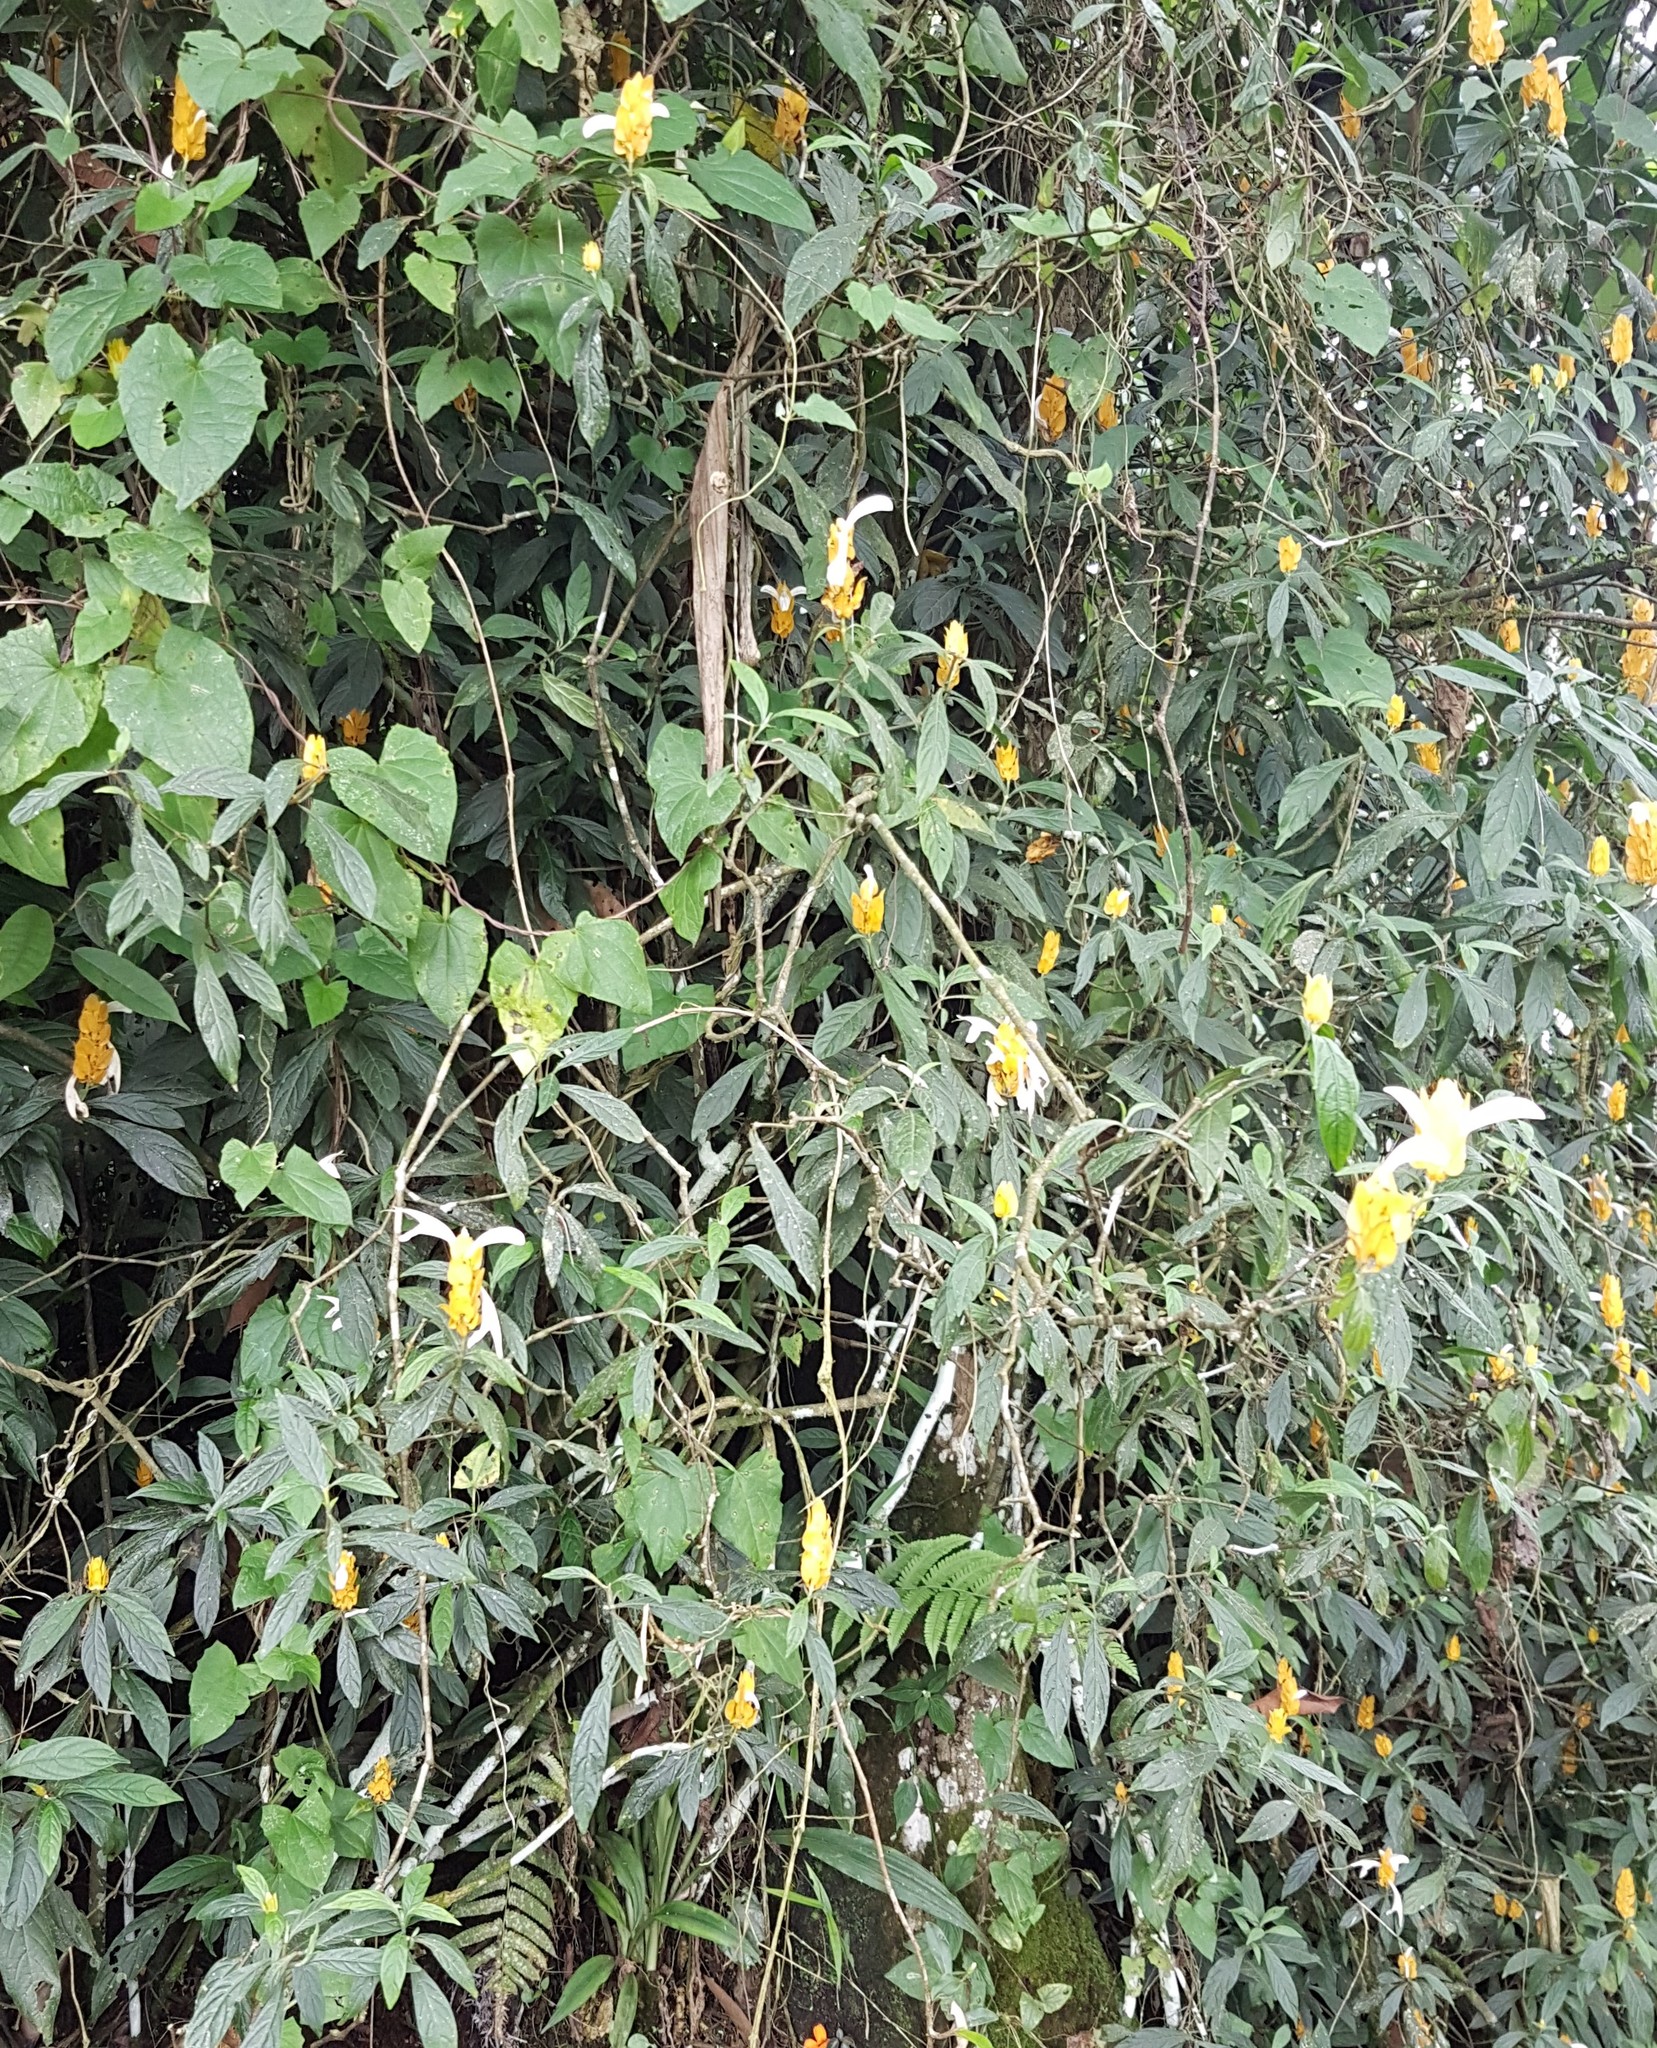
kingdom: Plantae
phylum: Tracheophyta
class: Magnoliopsida
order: Lamiales
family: Acanthaceae
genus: Pachystachys
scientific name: Pachystachys lutea
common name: Golden shrimp-plant
